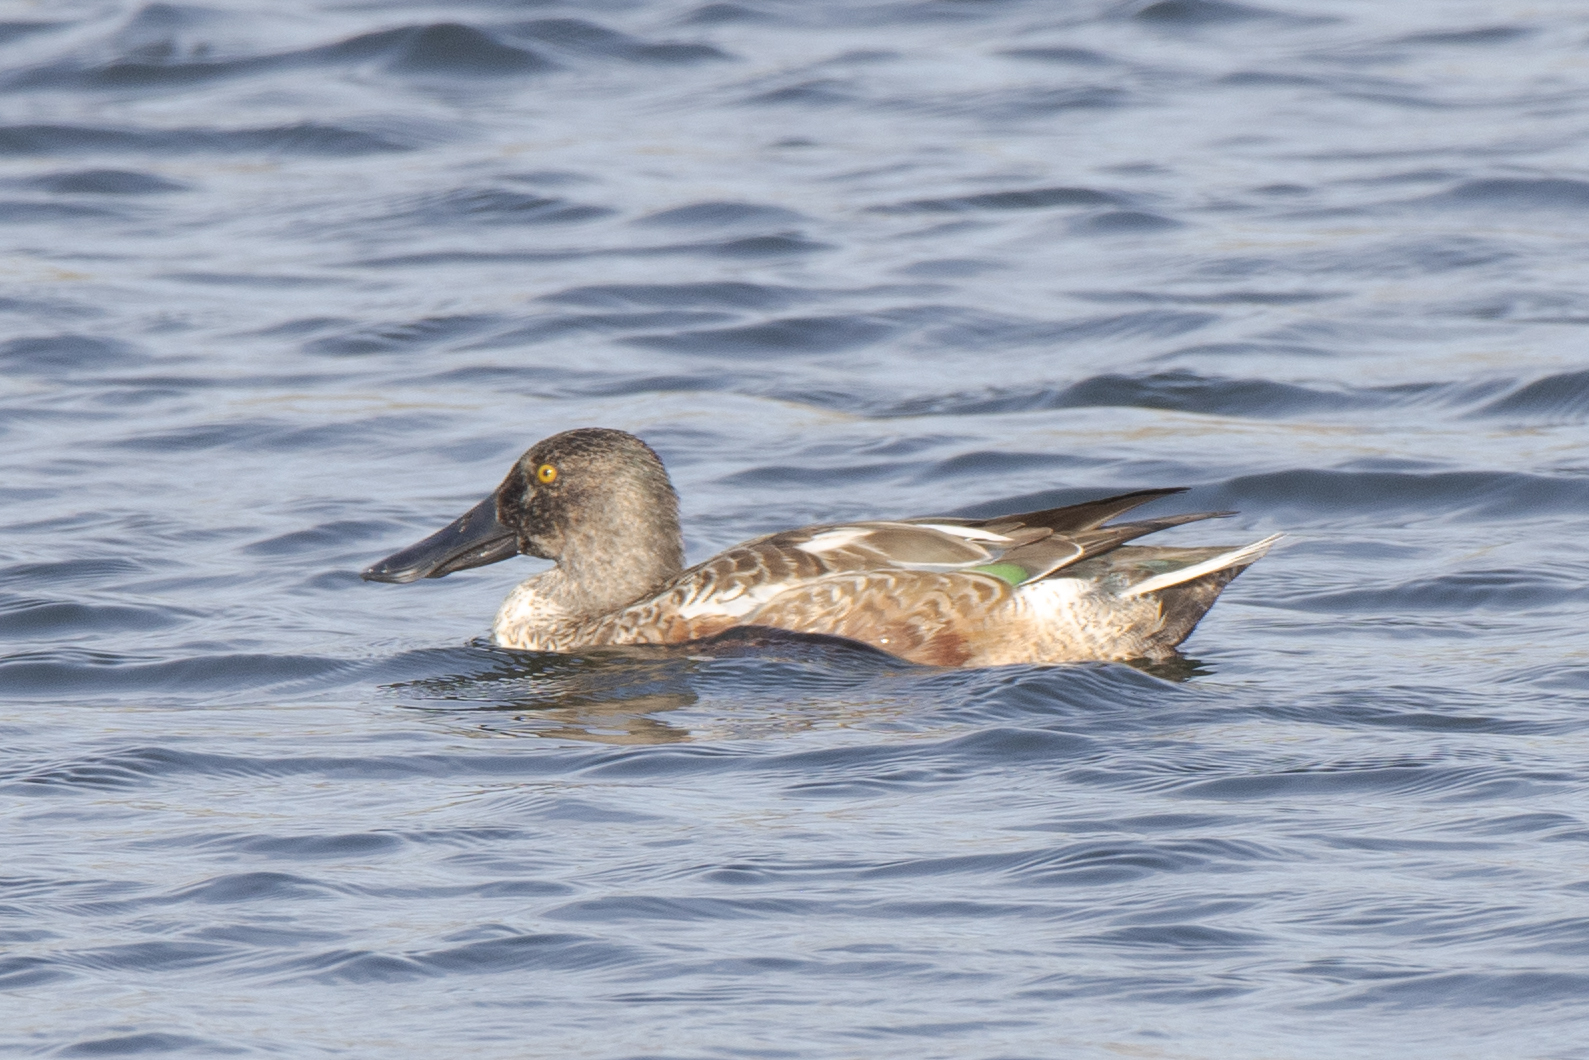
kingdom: Animalia
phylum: Chordata
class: Aves
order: Anseriformes
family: Anatidae
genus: Spatula
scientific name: Spatula clypeata
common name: Northern shoveler
